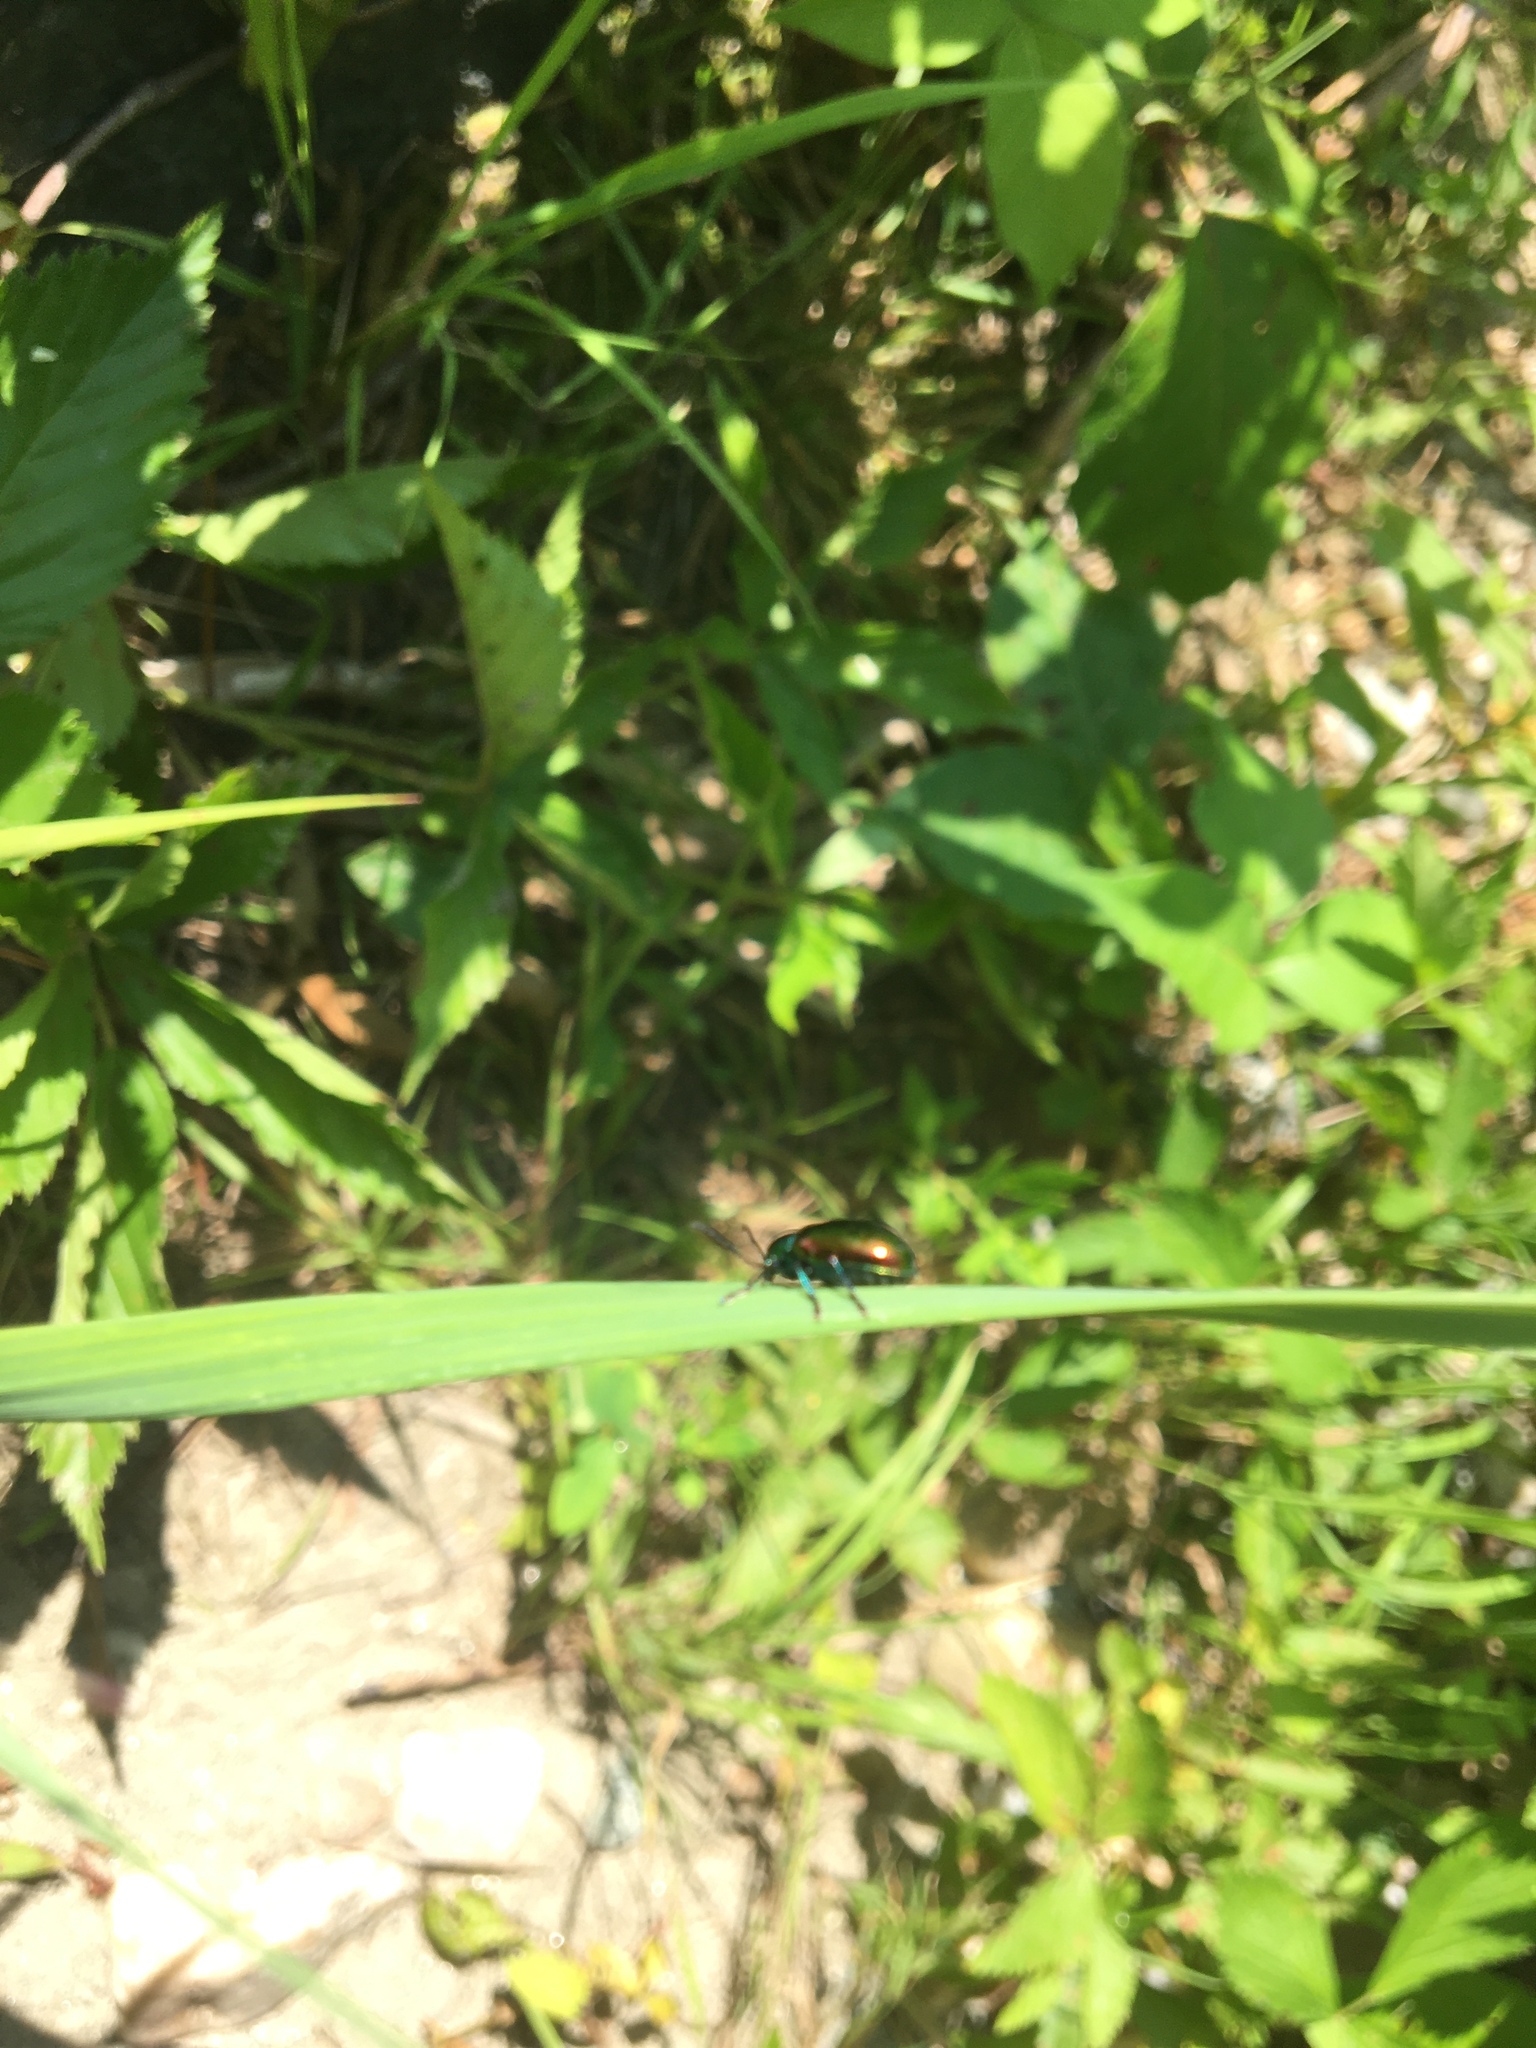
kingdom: Animalia
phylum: Arthropoda
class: Insecta
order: Coleoptera
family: Chrysomelidae
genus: Chrysochus
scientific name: Chrysochus auratus
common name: Dogbane leaf beetle
